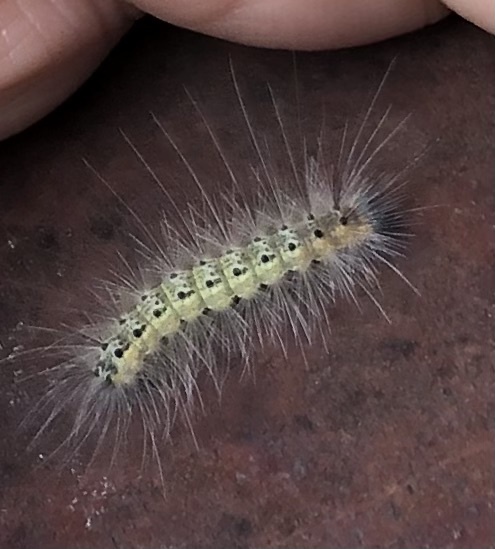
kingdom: Animalia
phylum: Arthropoda
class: Insecta
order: Lepidoptera
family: Erebidae
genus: Hyphantria
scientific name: Hyphantria cunea
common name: American white moth
